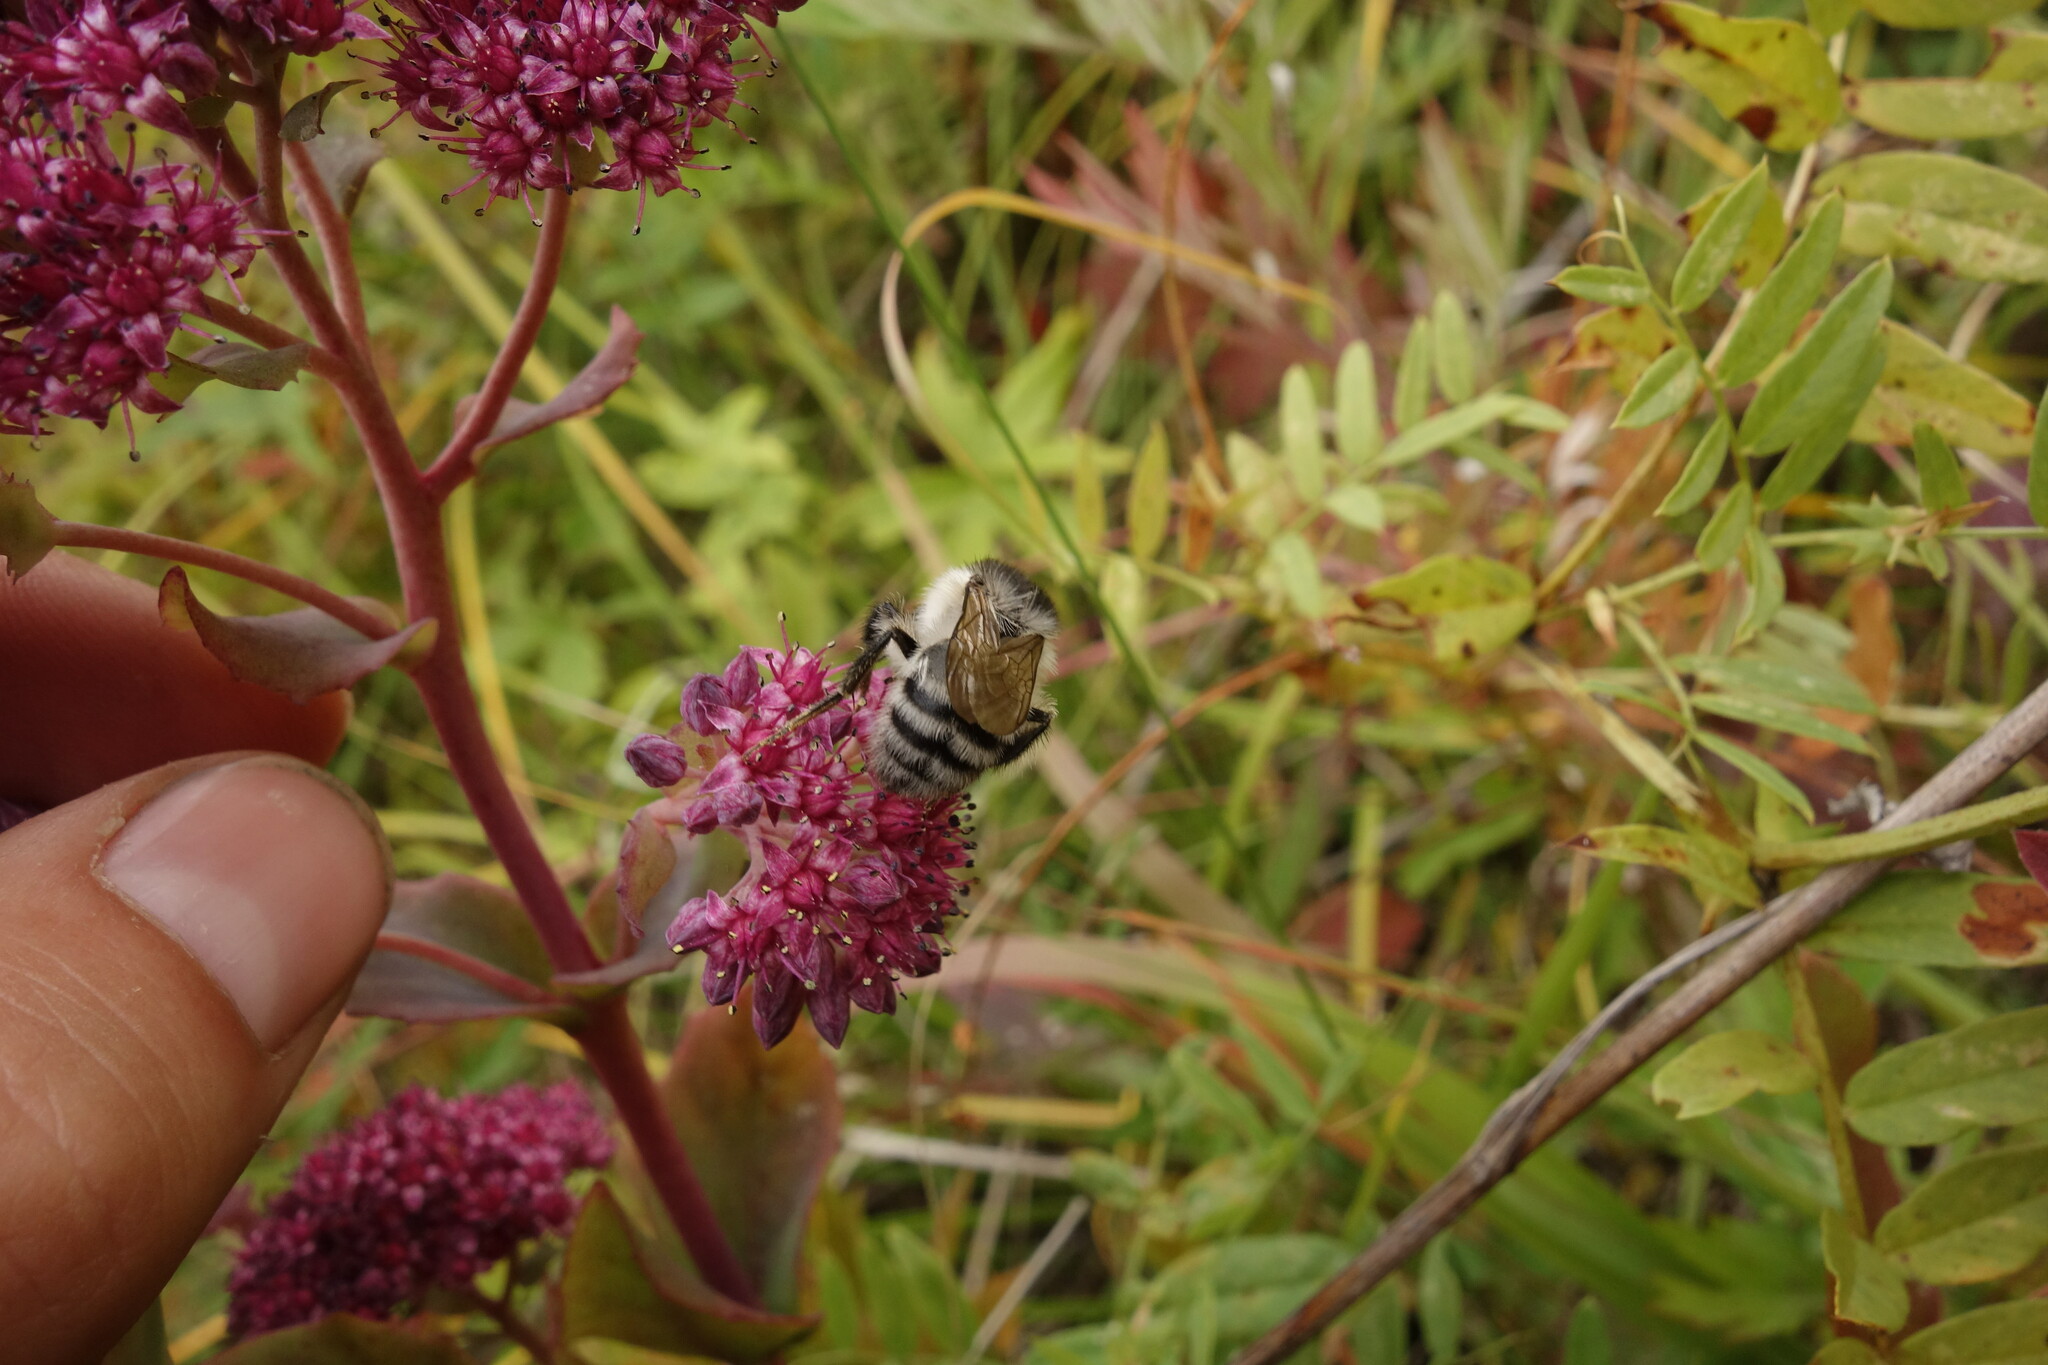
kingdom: Animalia
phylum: Arthropoda
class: Insecta
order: Hymenoptera
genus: Thoracobombus
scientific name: Thoracobombus
